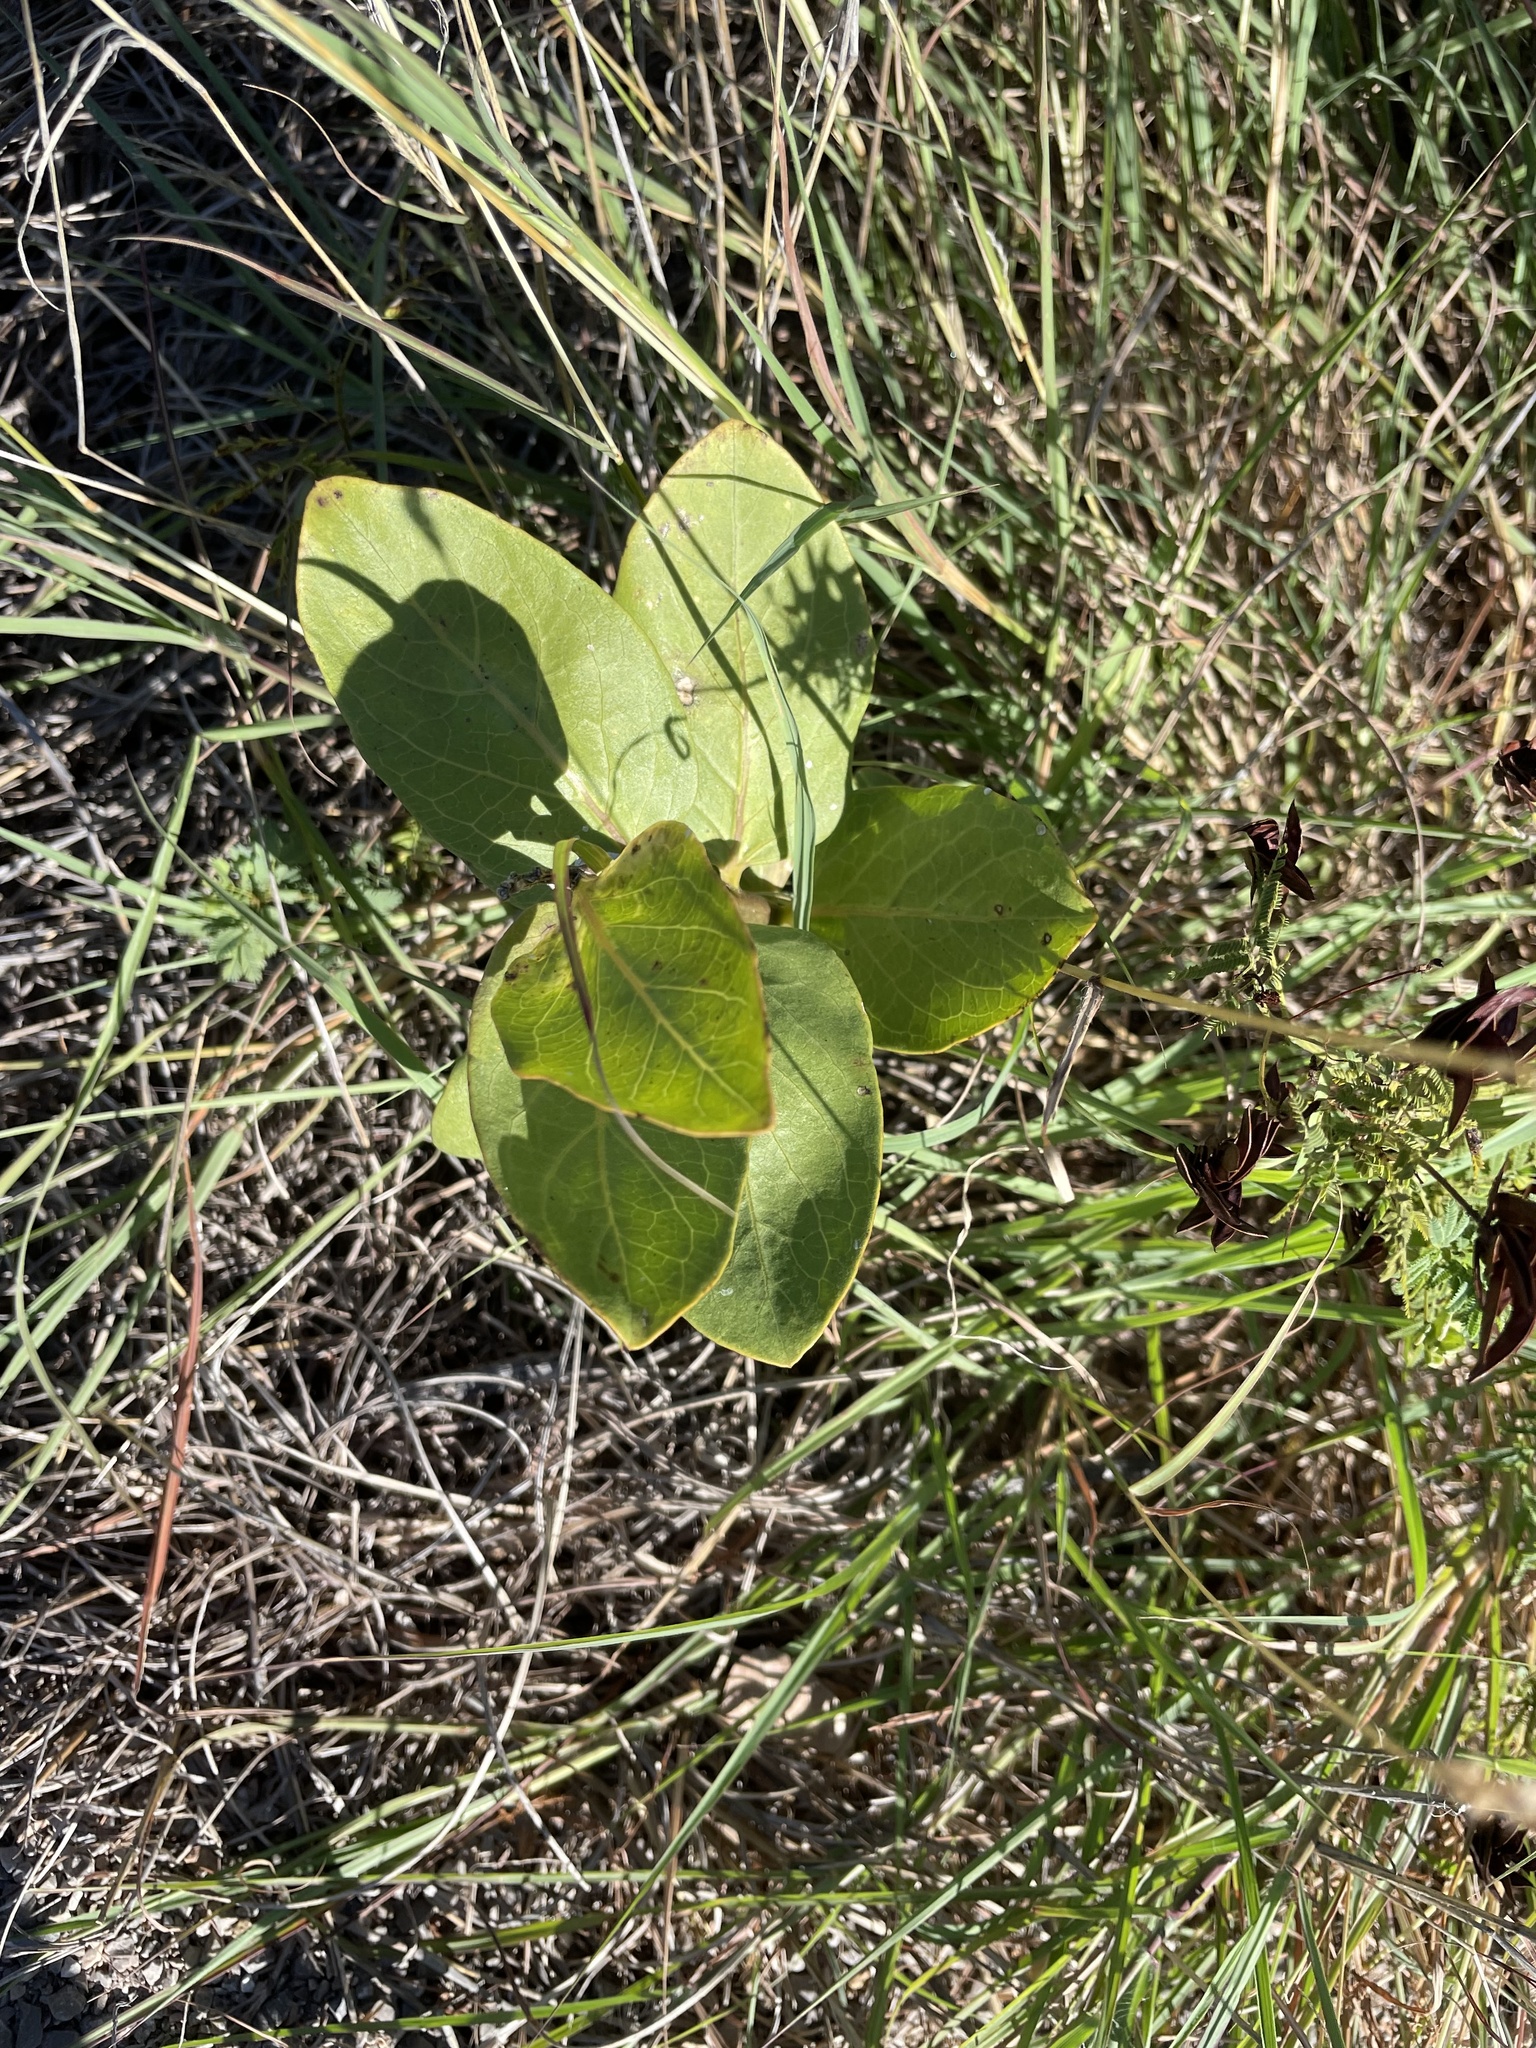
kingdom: Plantae
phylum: Tracheophyta
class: Magnoliopsida
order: Gentianales
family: Apocynaceae
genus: Asclepias
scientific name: Asclepias viridis
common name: Antelope-horns
